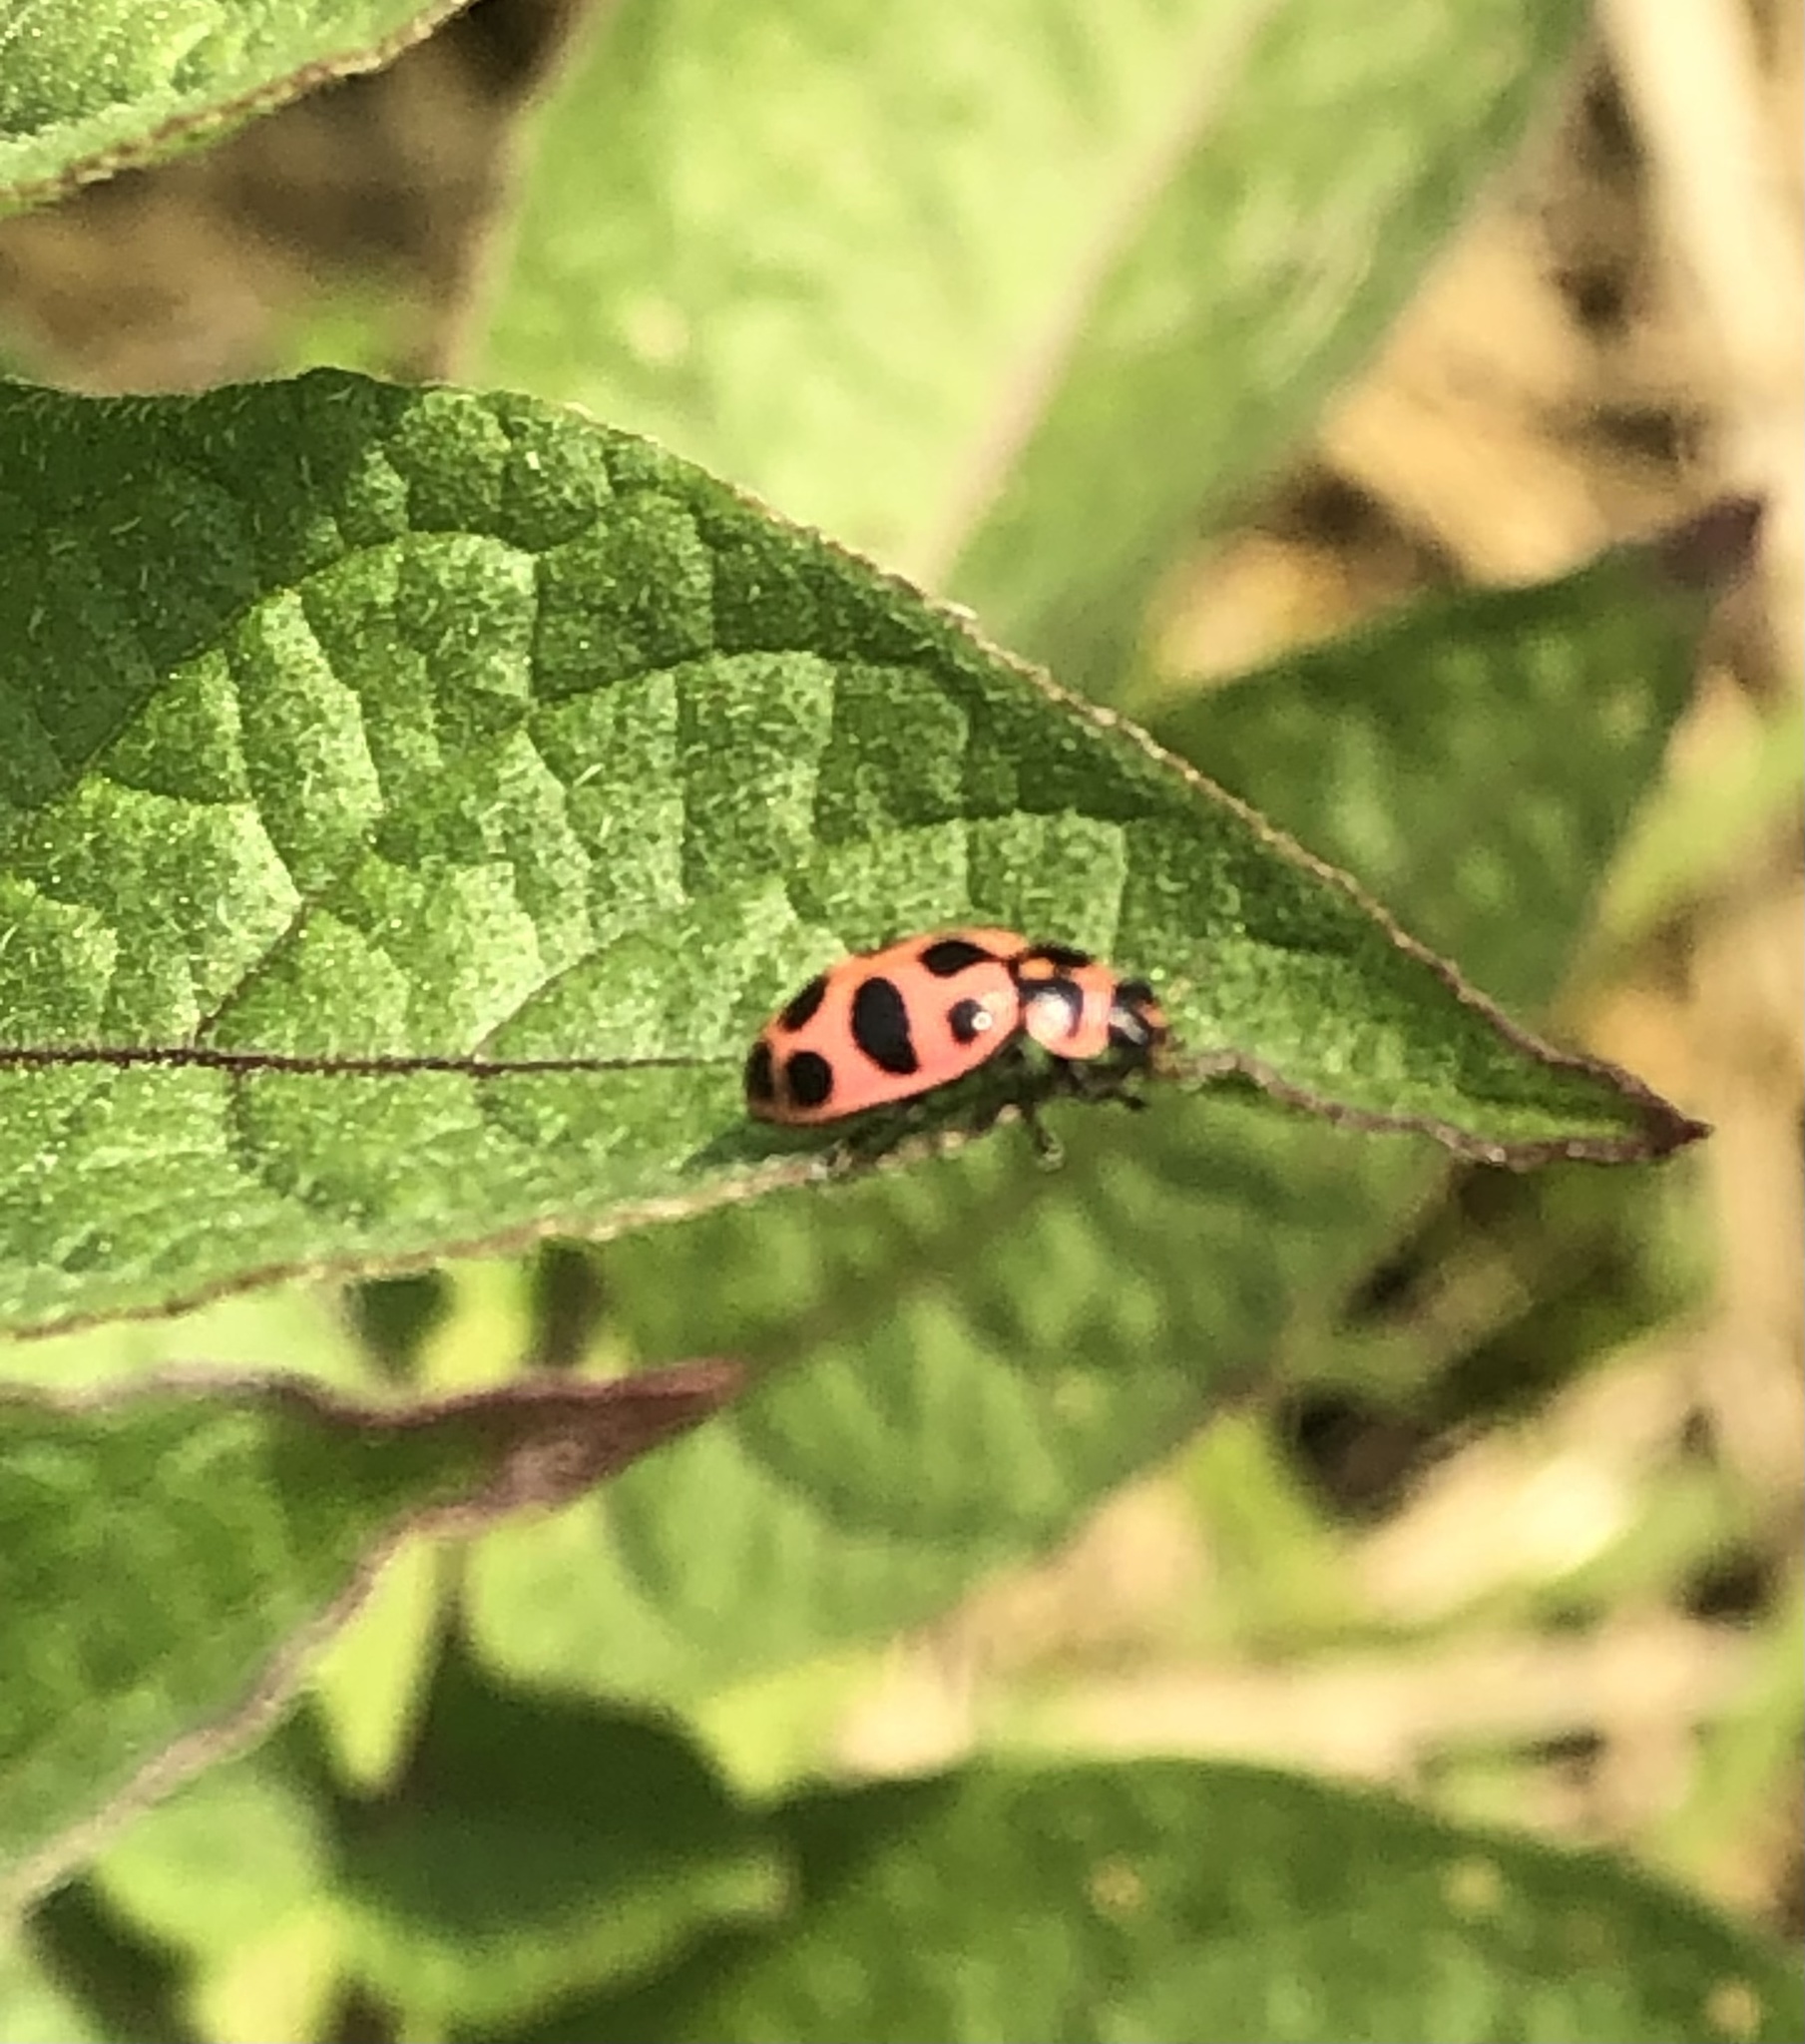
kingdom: Animalia
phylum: Arthropoda
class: Insecta
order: Coleoptera
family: Coccinellidae
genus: Coleomegilla
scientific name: Coleomegilla maculata
